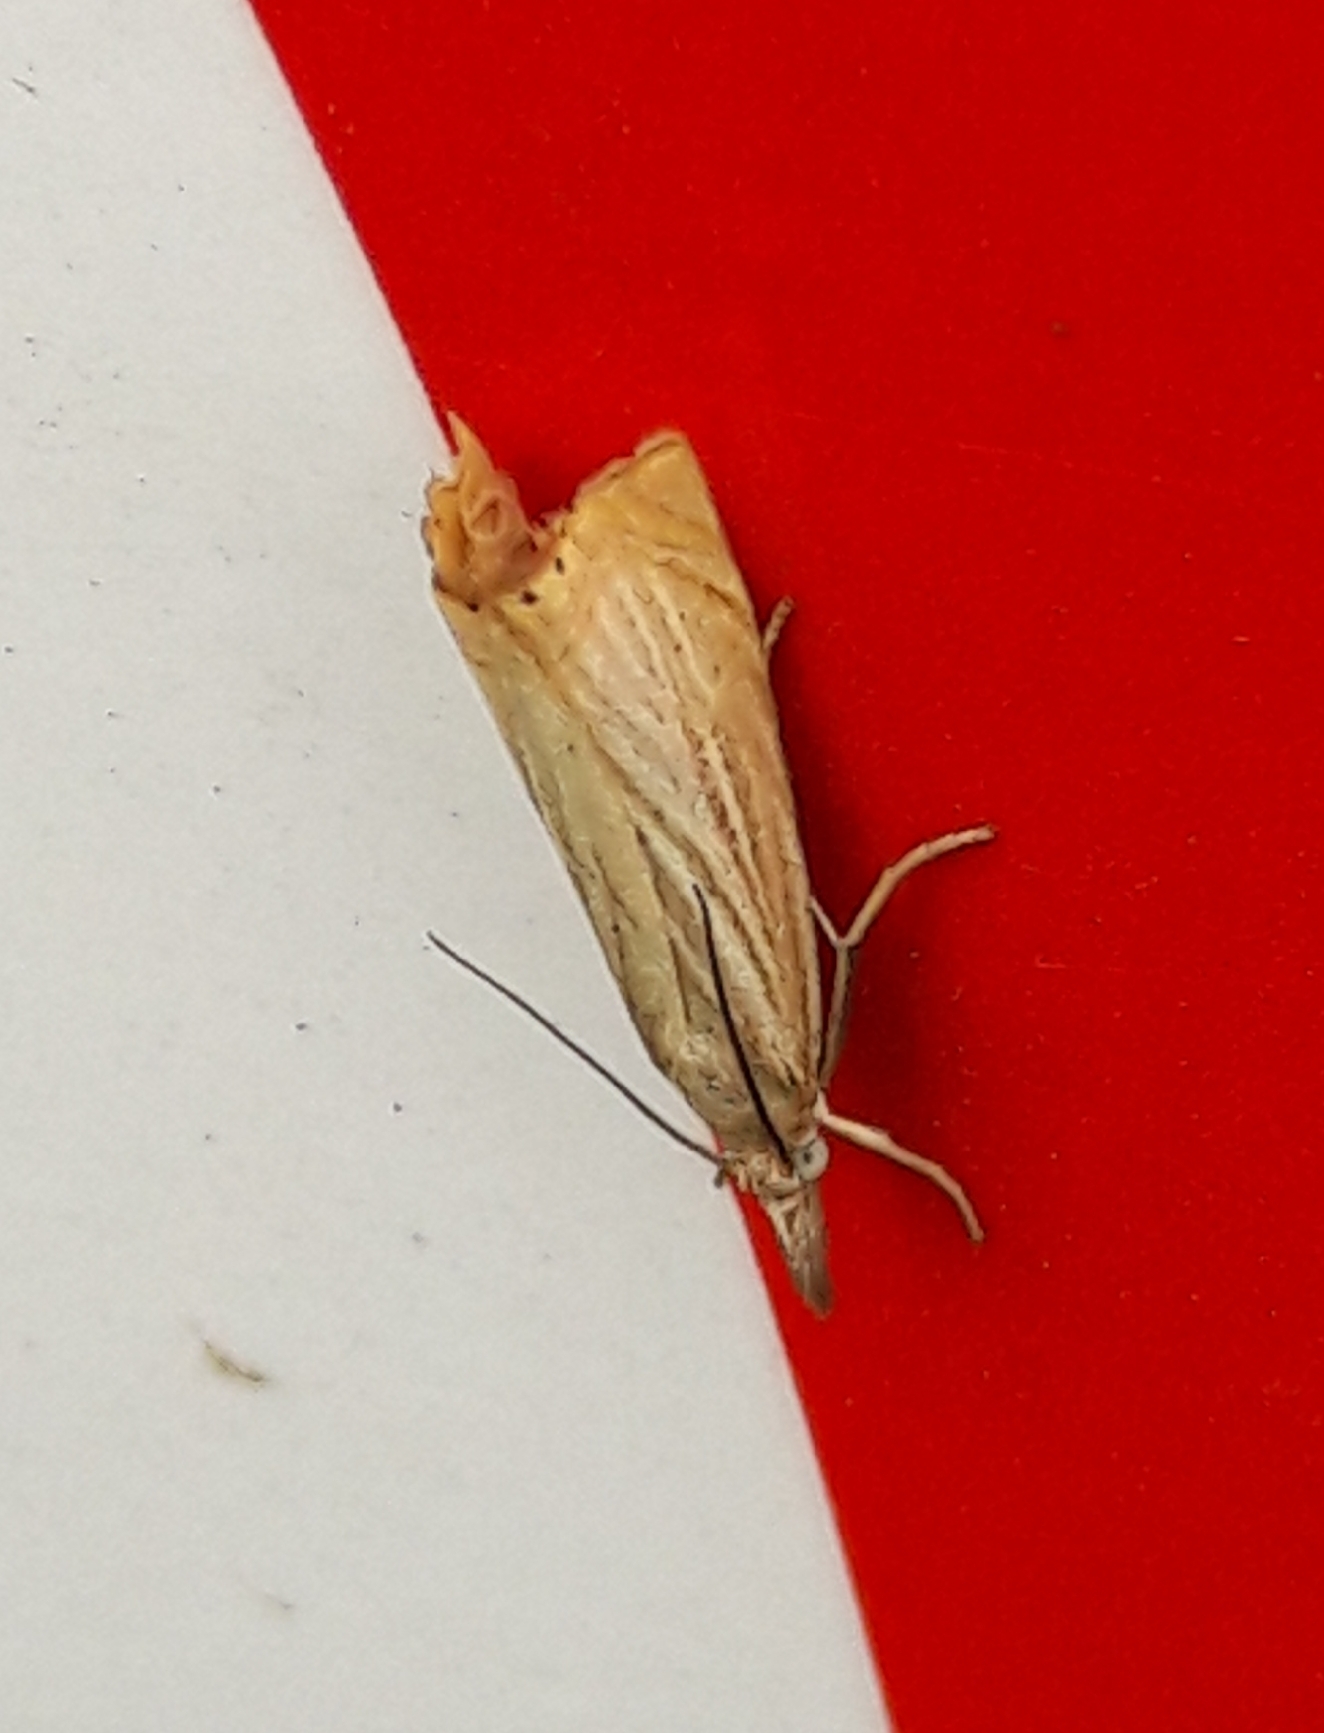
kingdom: Animalia
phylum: Arthropoda
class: Insecta
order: Lepidoptera
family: Crambidae
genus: Chrysoteuchia
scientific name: Chrysoteuchia culmella
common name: Garden grass-veneer
